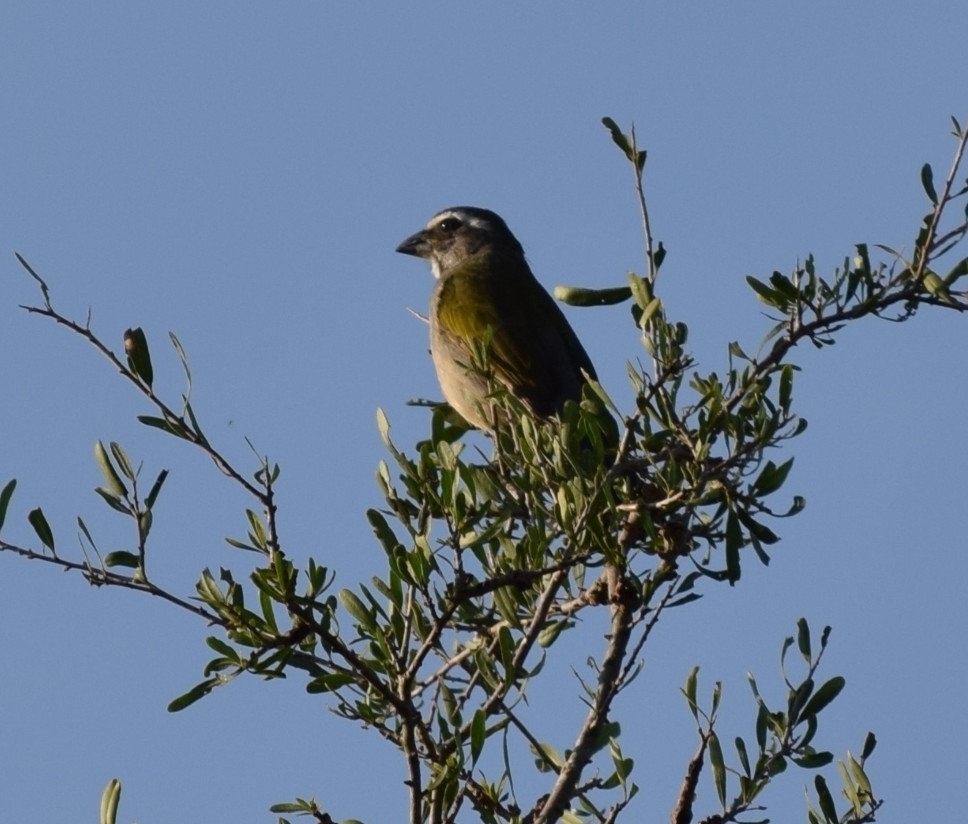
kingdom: Animalia
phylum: Chordata
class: Aves
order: Passeriformes
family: Thraupidae
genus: Saltator
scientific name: Saltator similis
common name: Green-winged saltator
